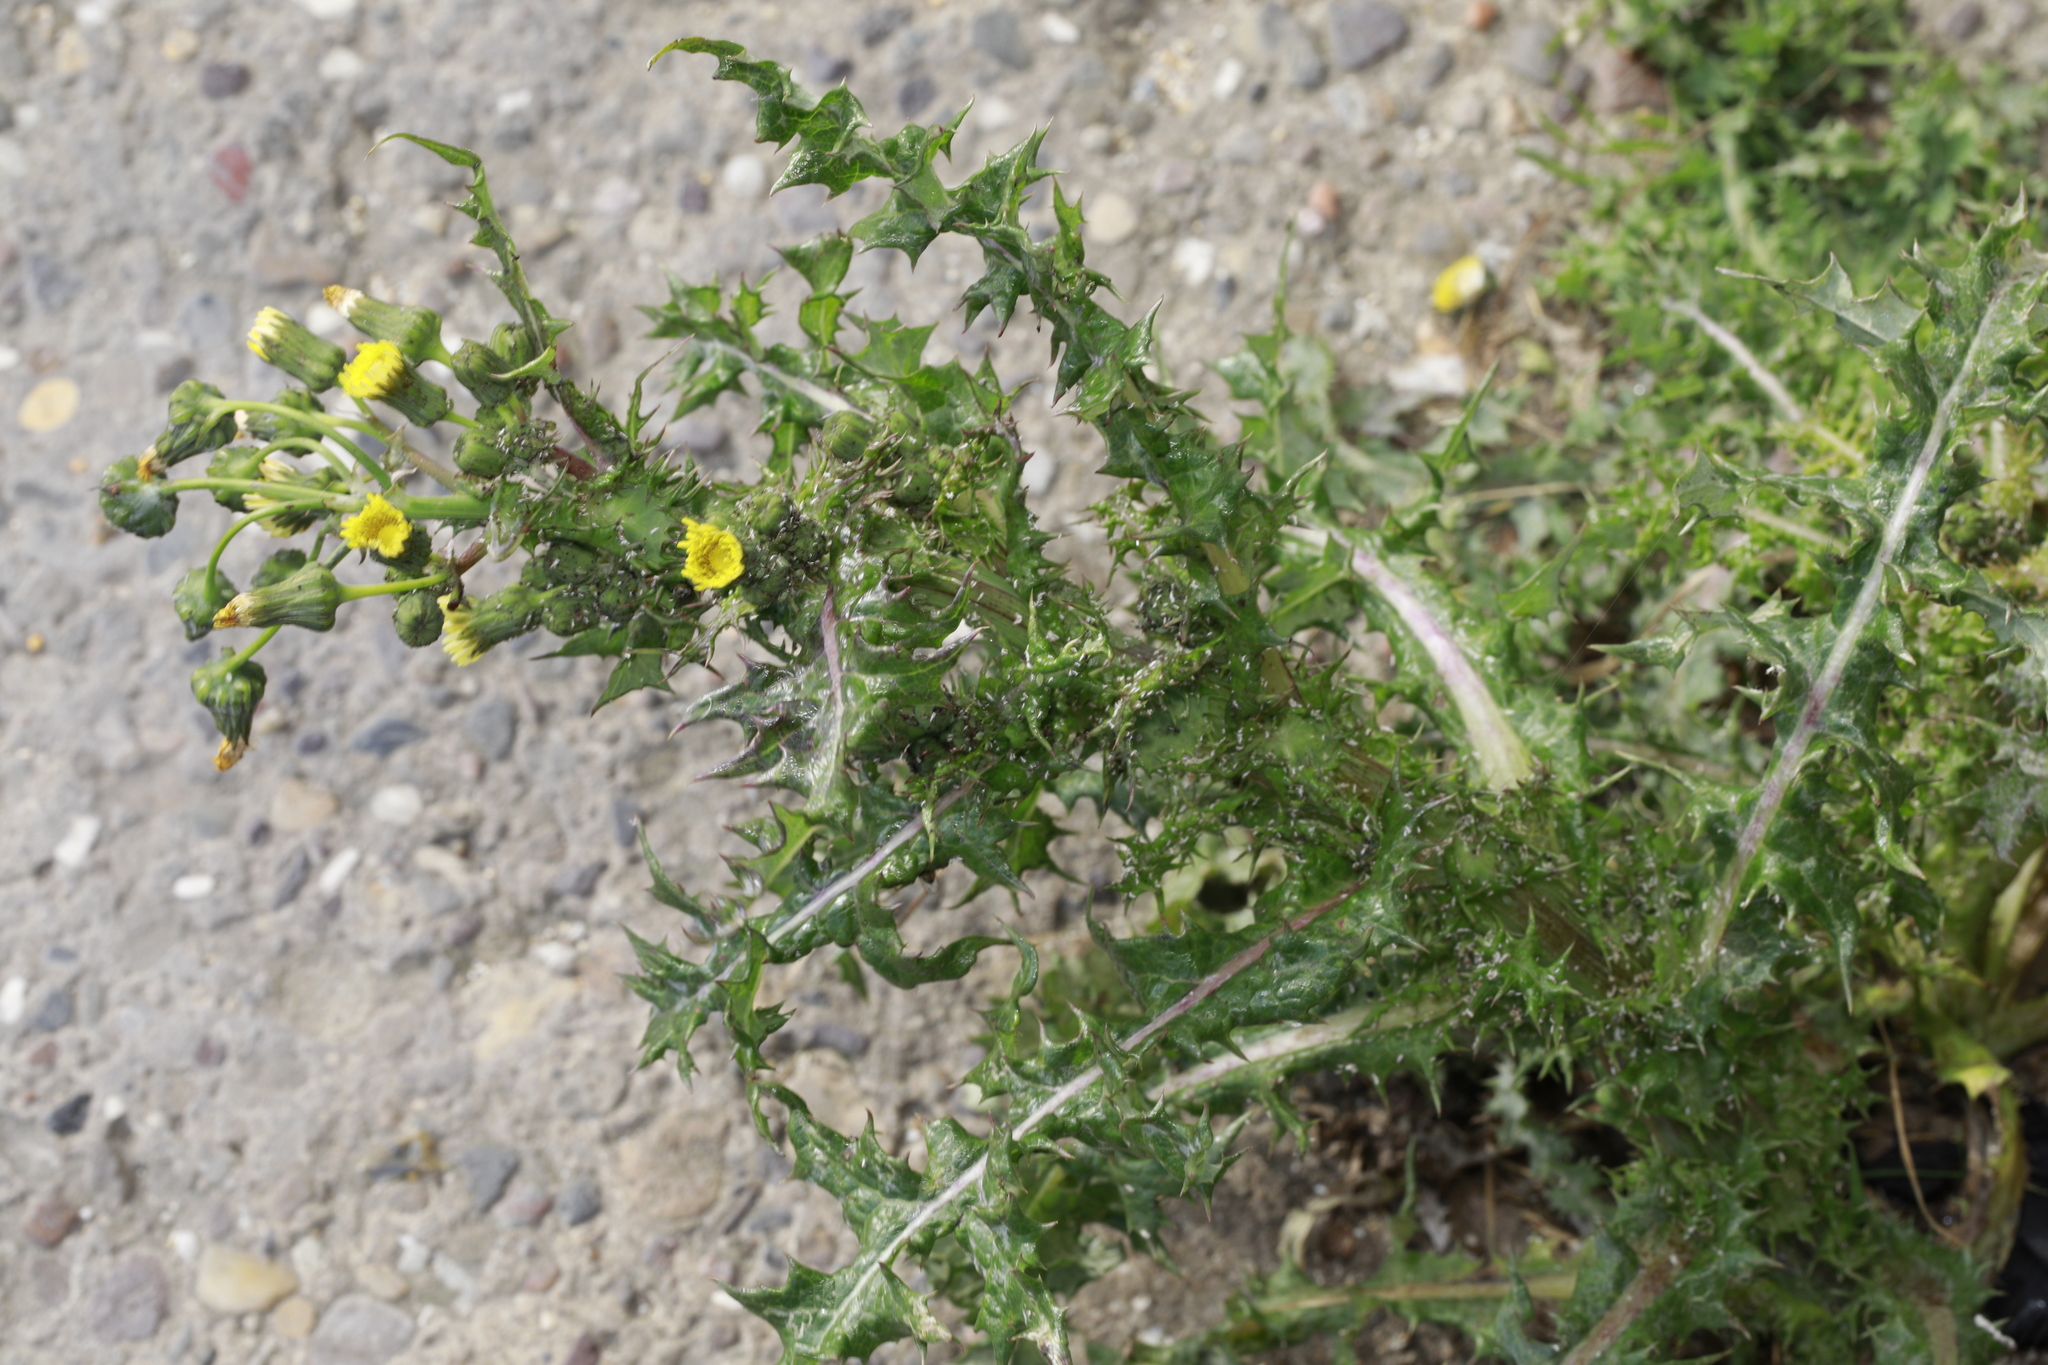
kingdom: Plantae
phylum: Tracheophyta
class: Magnoliopsida
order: Asterales
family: Asteraceae
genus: Sonchus
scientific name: Sonchus asper
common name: Prickly sow-thistle
